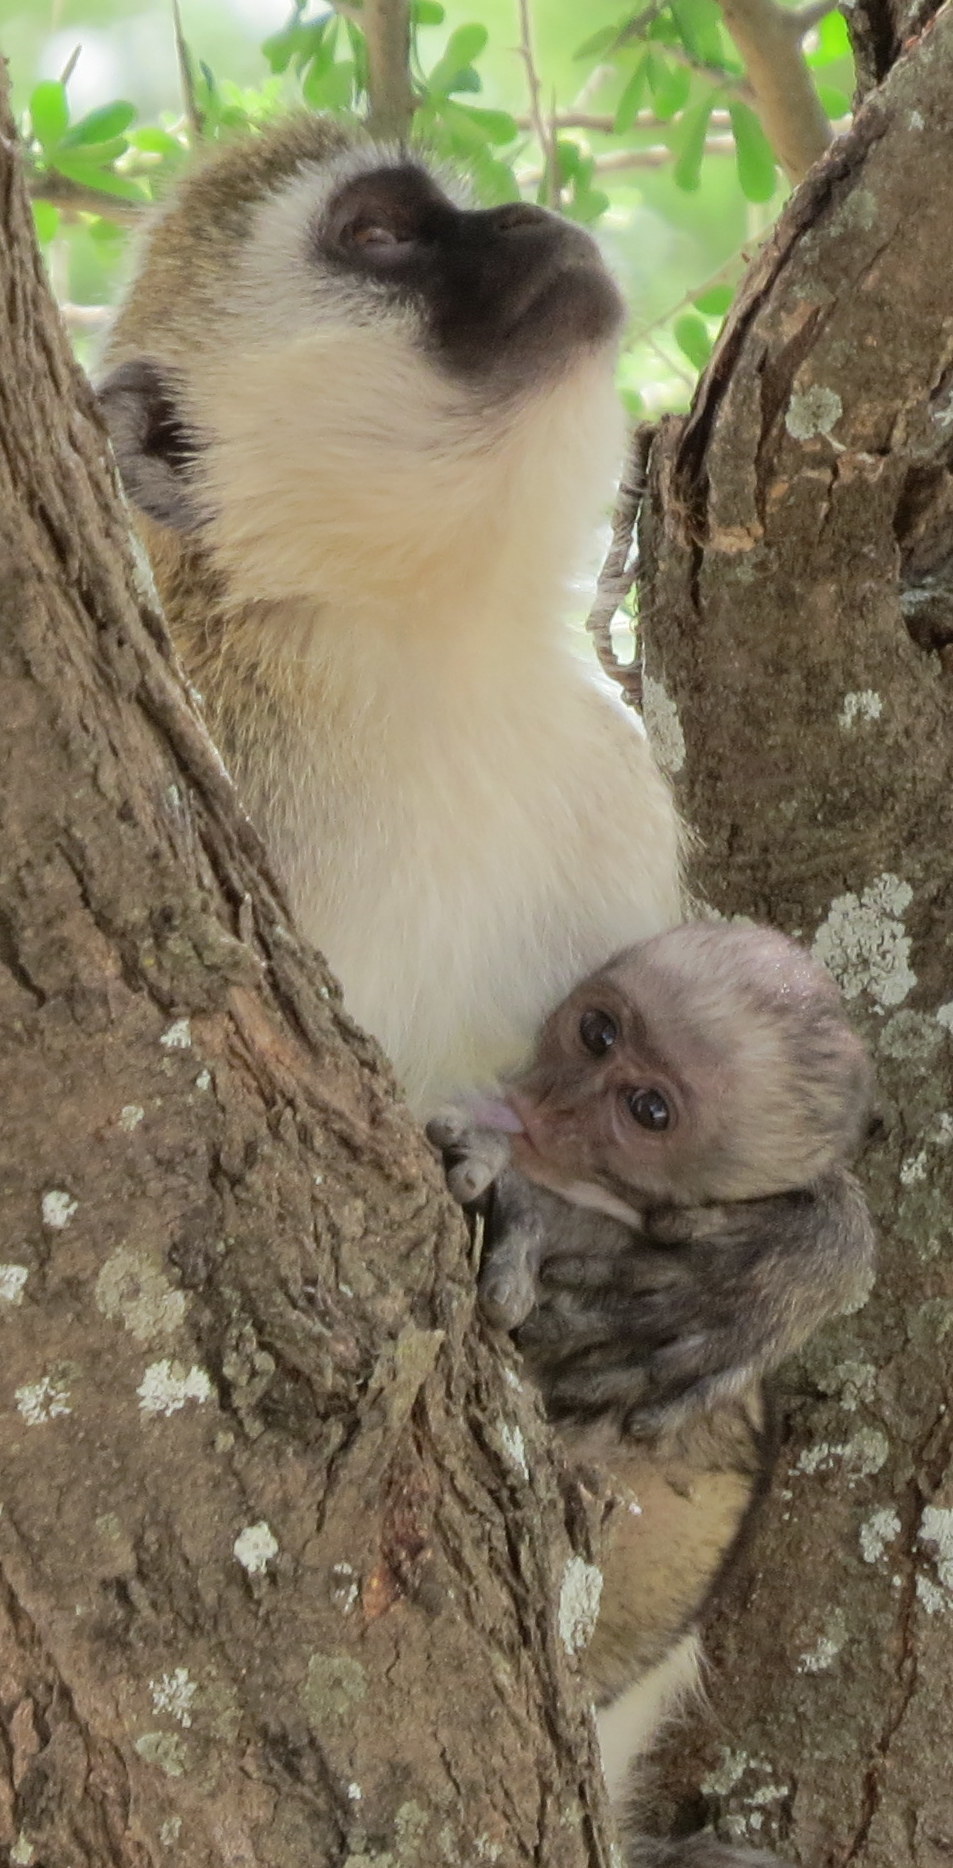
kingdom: Animalia
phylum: Chordata
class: Mammalia
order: Primates
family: Cercopithecidae
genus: Chlorocebus
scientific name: Chlorocebus pygerythrus
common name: Vervet monkey
